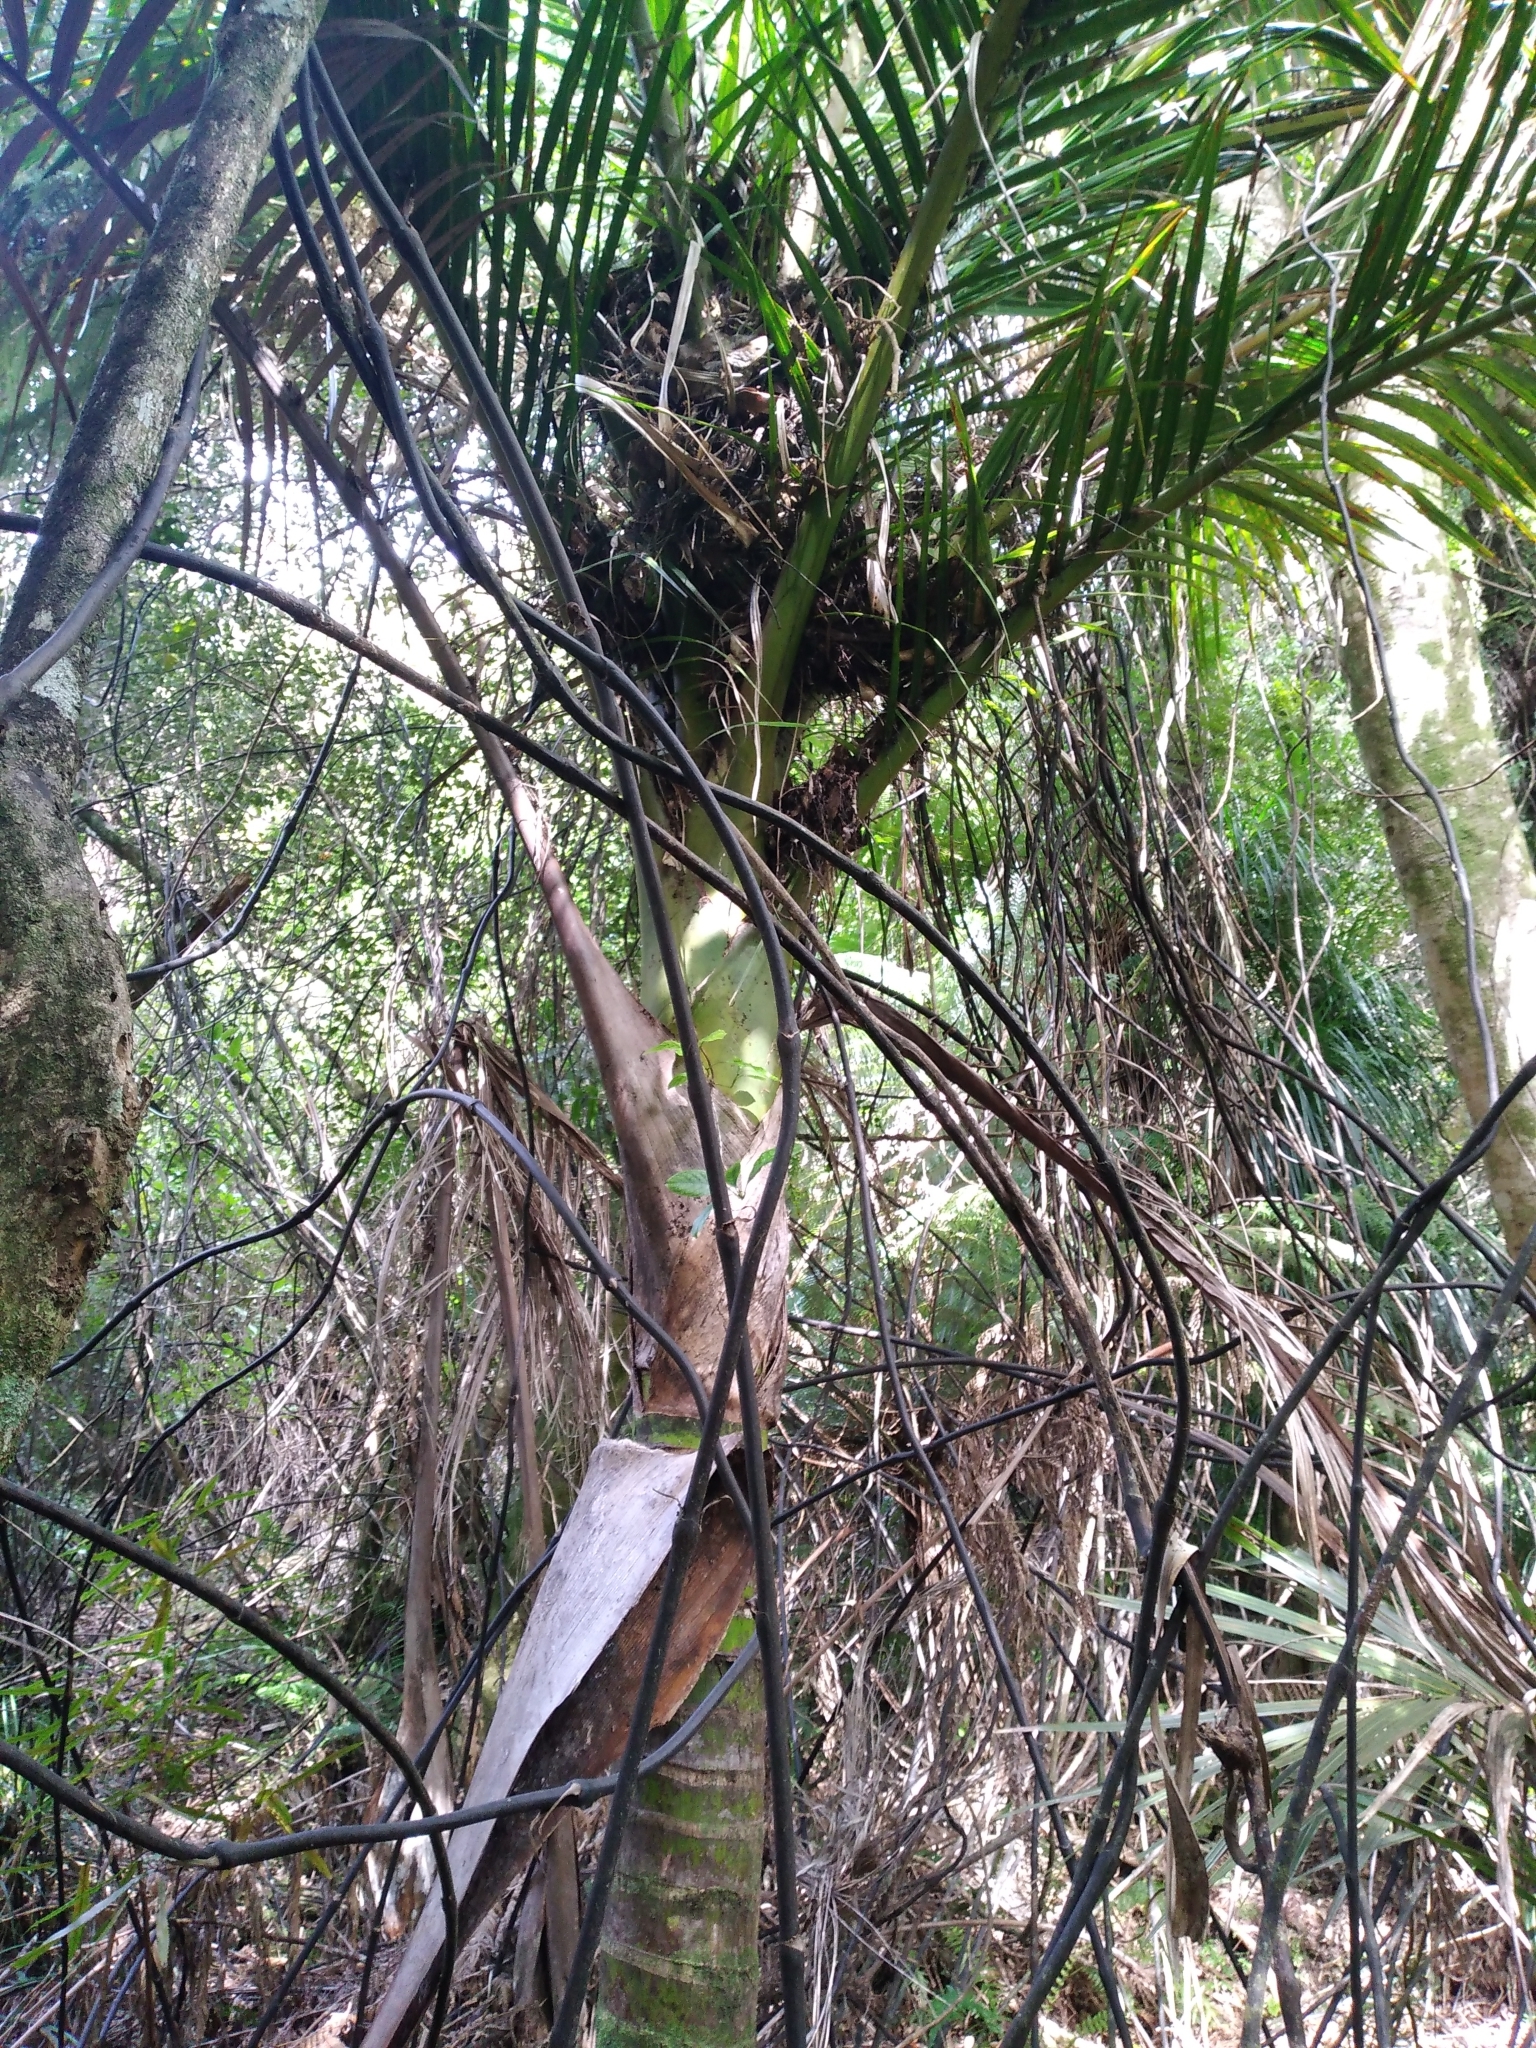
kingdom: Plantae
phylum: Tracheophyta
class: Liliopsida
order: Arecales
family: Arecaceae
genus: Rhopalostylis
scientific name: Rhopalostylis sapida
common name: Feather-duster palm
